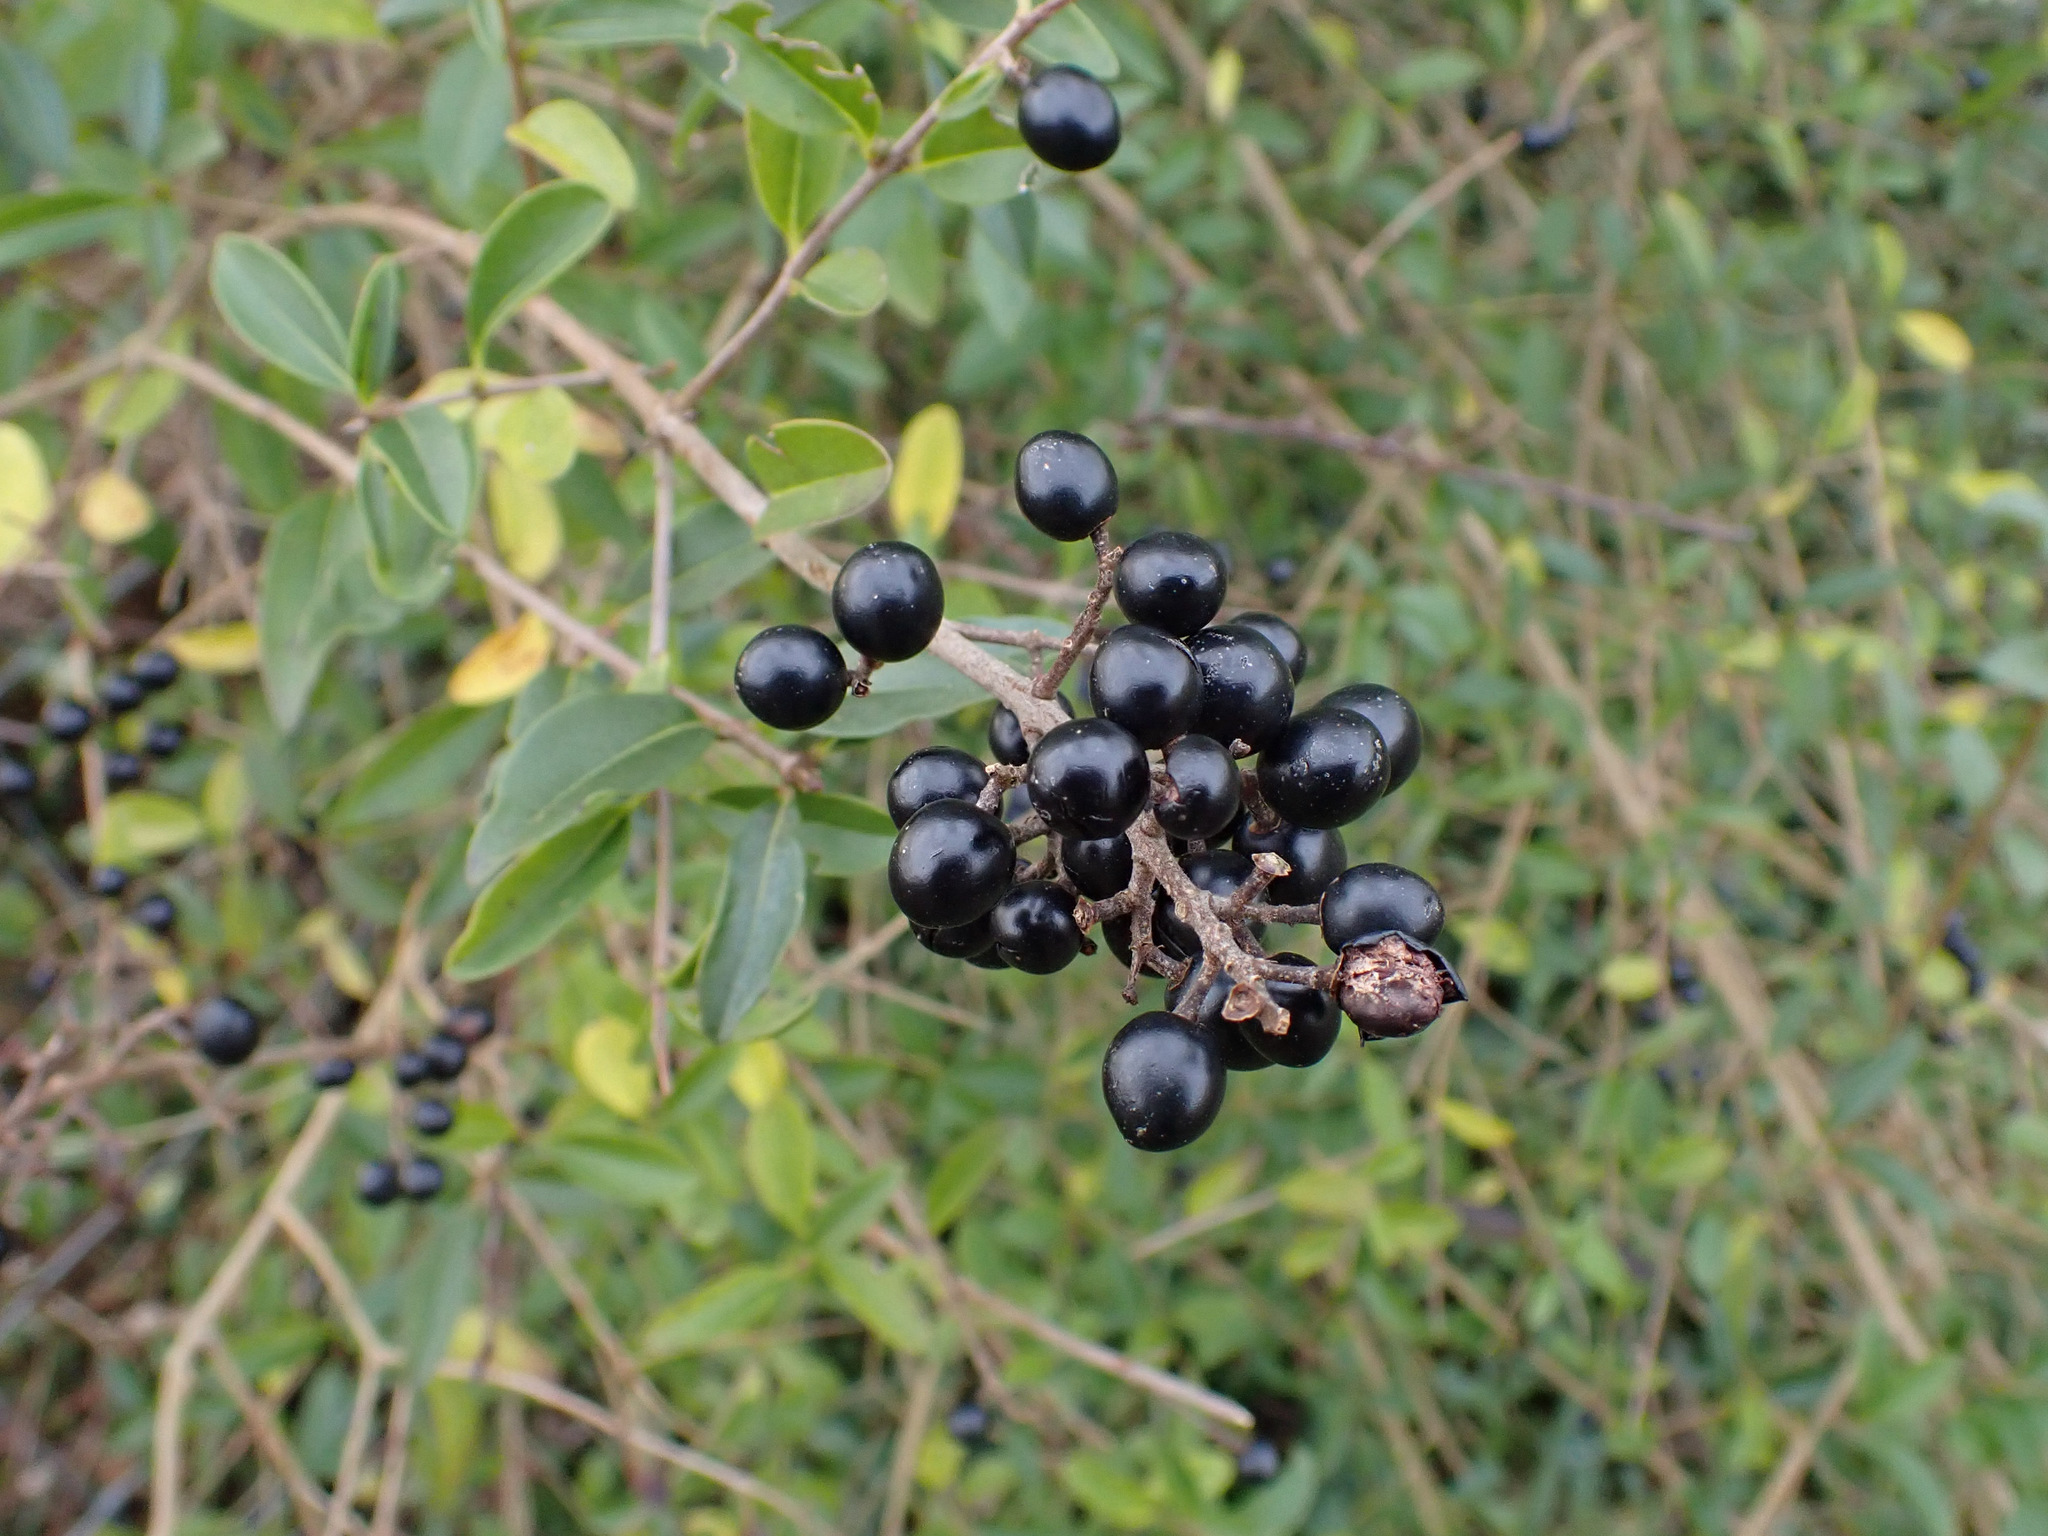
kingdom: Plantae
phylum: Tracheophyta
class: Magnoliopsida
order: Lamiales
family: Oleaceae
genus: Ligustrum
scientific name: Ligustrum vulgare
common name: Wild privet
